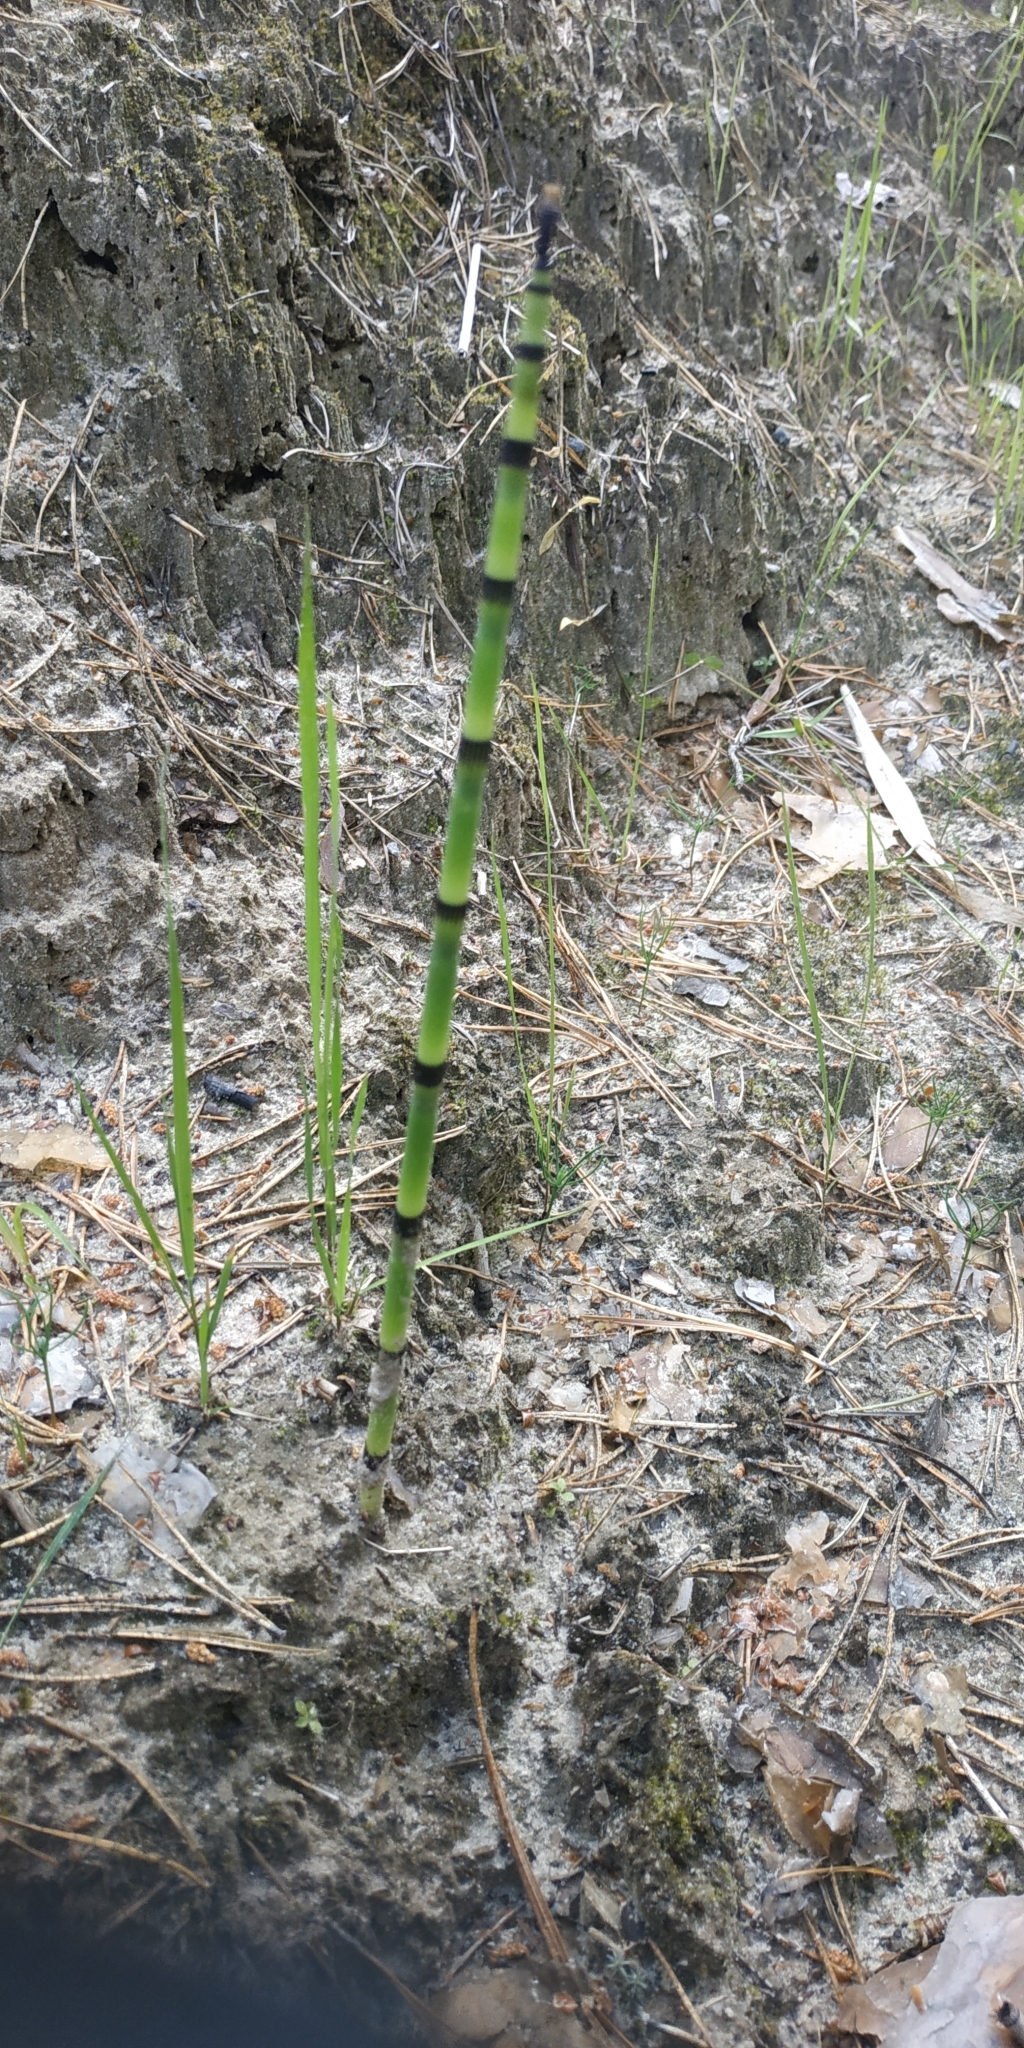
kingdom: Plantae
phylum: Tracheophyta
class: Polypodiopsida
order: Equisetales
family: Equisetaceae
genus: Equisetum
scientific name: Equisetum hyemale
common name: Rough horsetail
